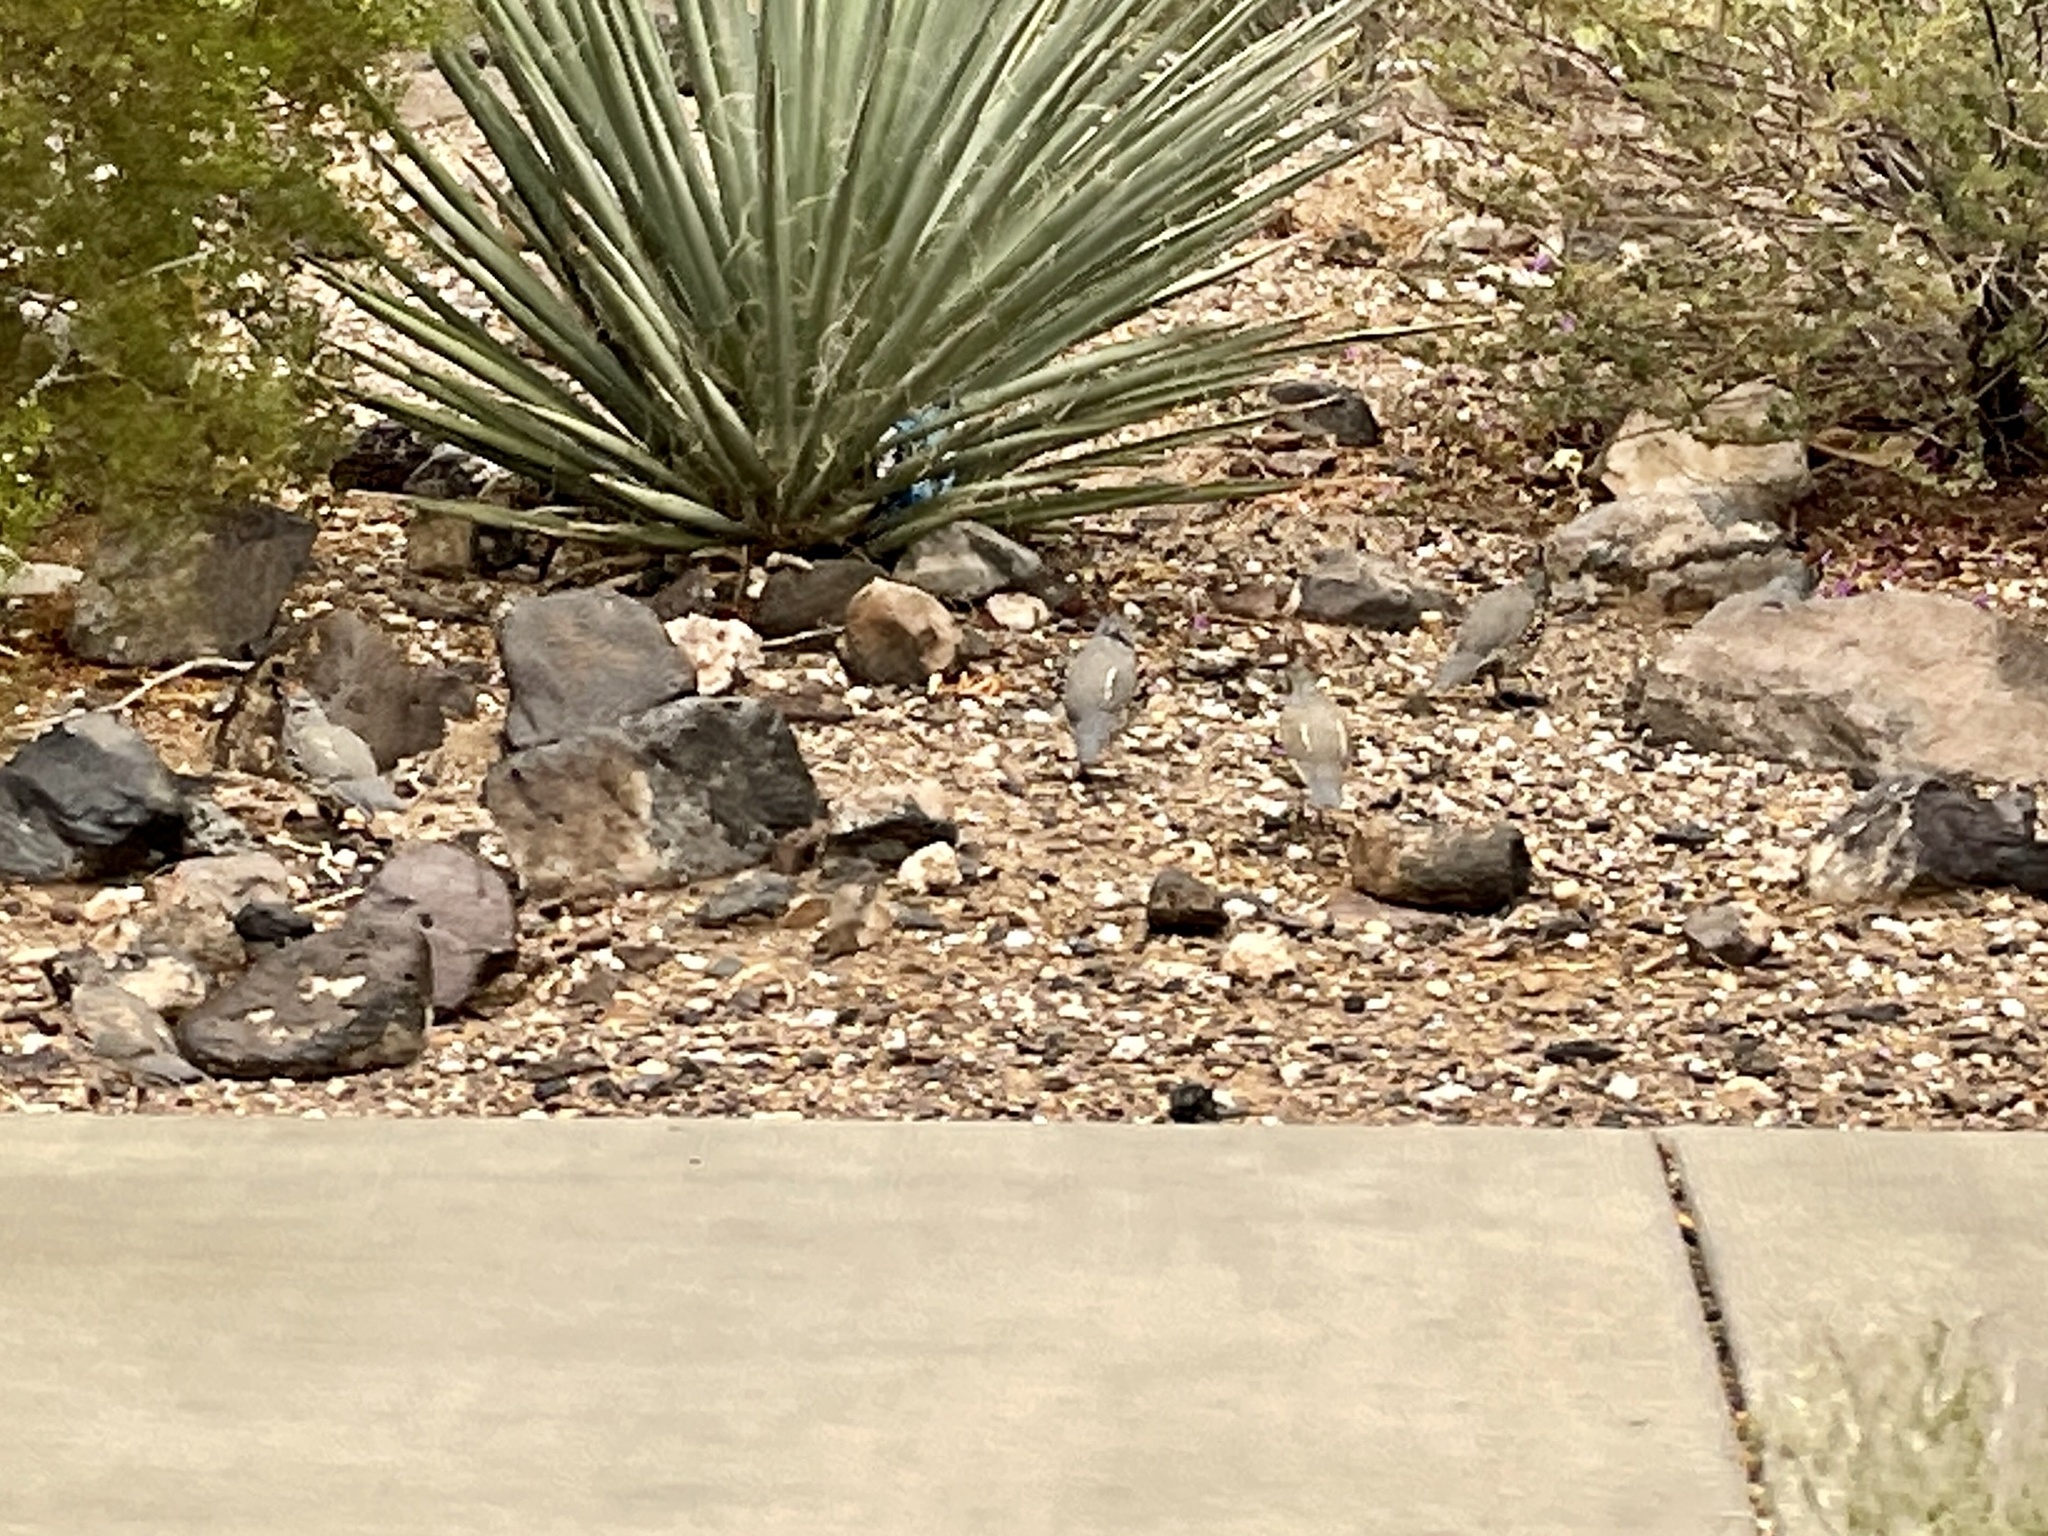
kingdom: Animalia
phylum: Chordata
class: Aves
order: Galliformes
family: Odontophoridae
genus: Callipepla
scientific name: Callipepla gambelii
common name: Gambel's quail
